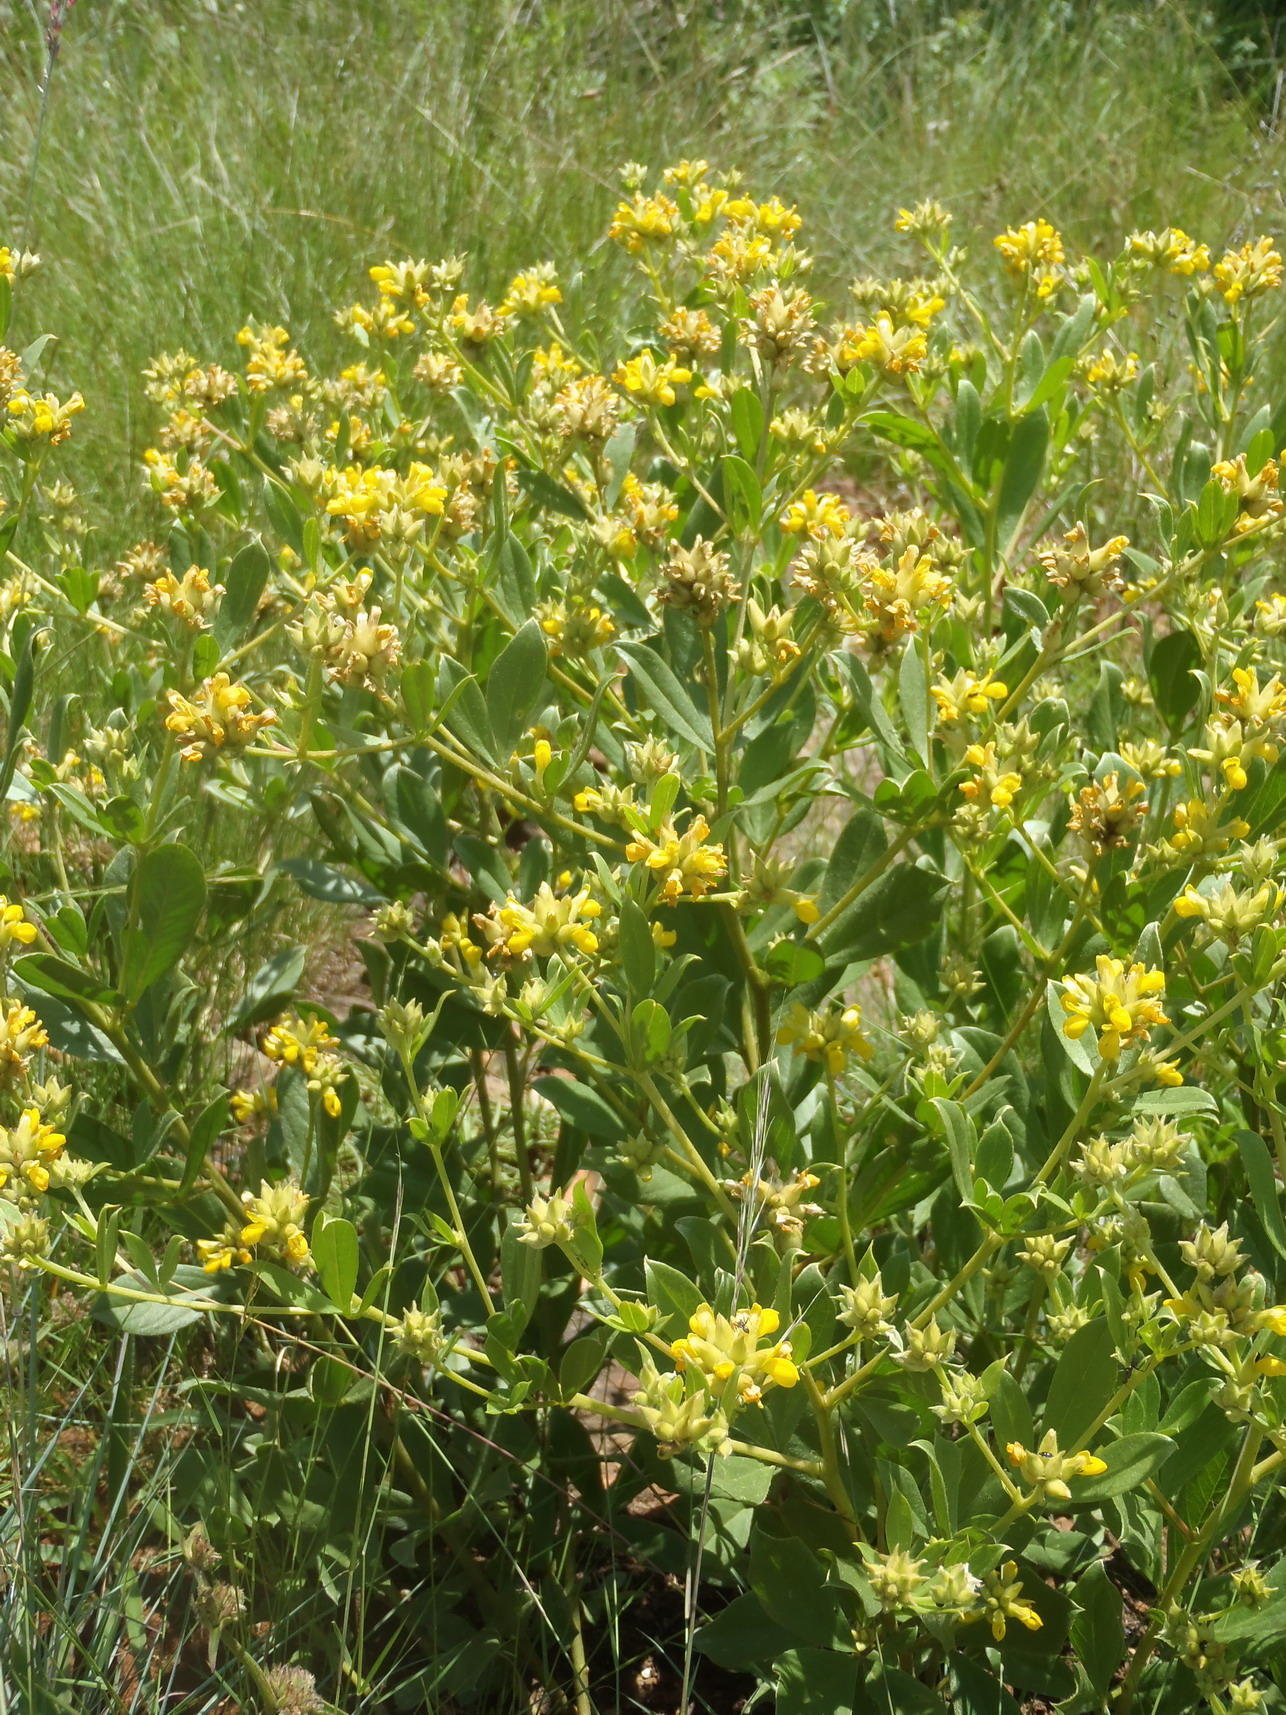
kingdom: Plantae
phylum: Tracheophyta
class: Magnoliopsida
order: Fabales
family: Fabaceae
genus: Pearsonia
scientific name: Pearsonia cajanifolia
